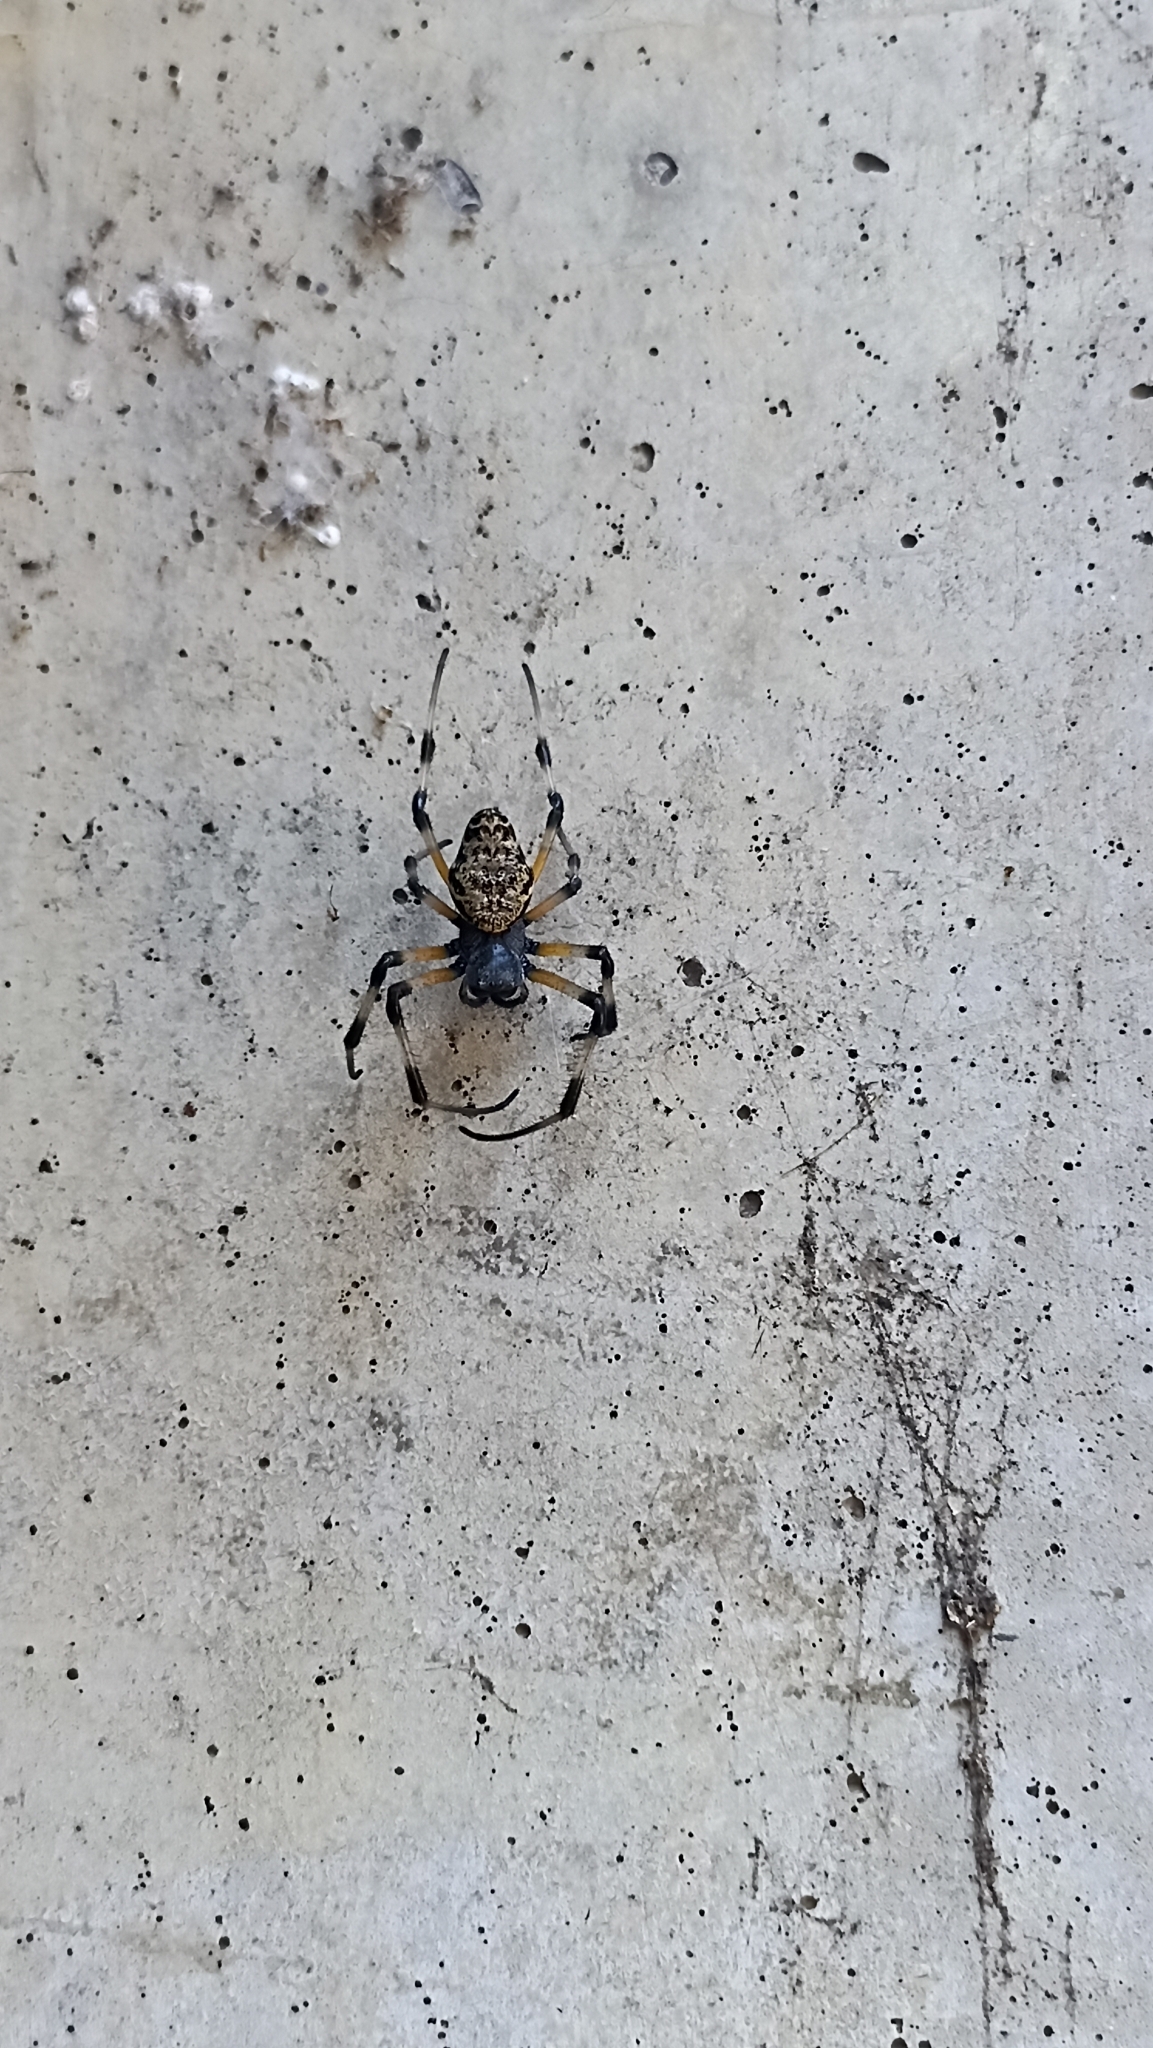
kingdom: Animalia
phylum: Arthropoda
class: Arachnida
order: Araneae
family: Araneidae
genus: Nephilingis
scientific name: Nephilingis cruentata
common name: African hermit spider
